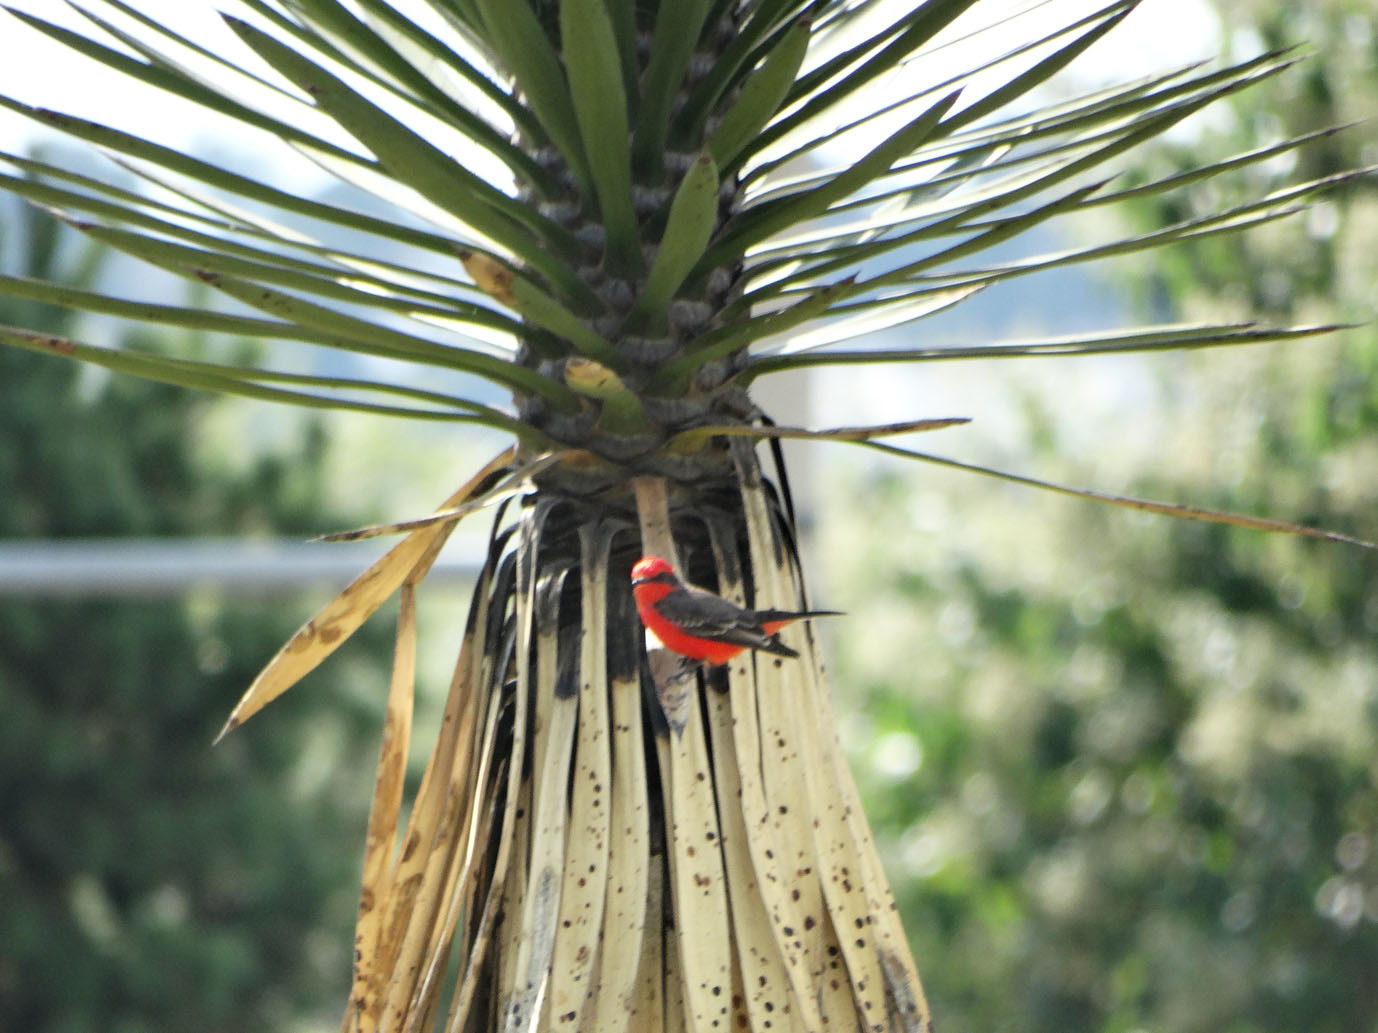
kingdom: Animalia
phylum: Chordata
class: Aves
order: Passeriformes
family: Tyrannidae
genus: Pyrocephalus
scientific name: Pyrocephalus rubinus
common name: Vermilion flycatcher
